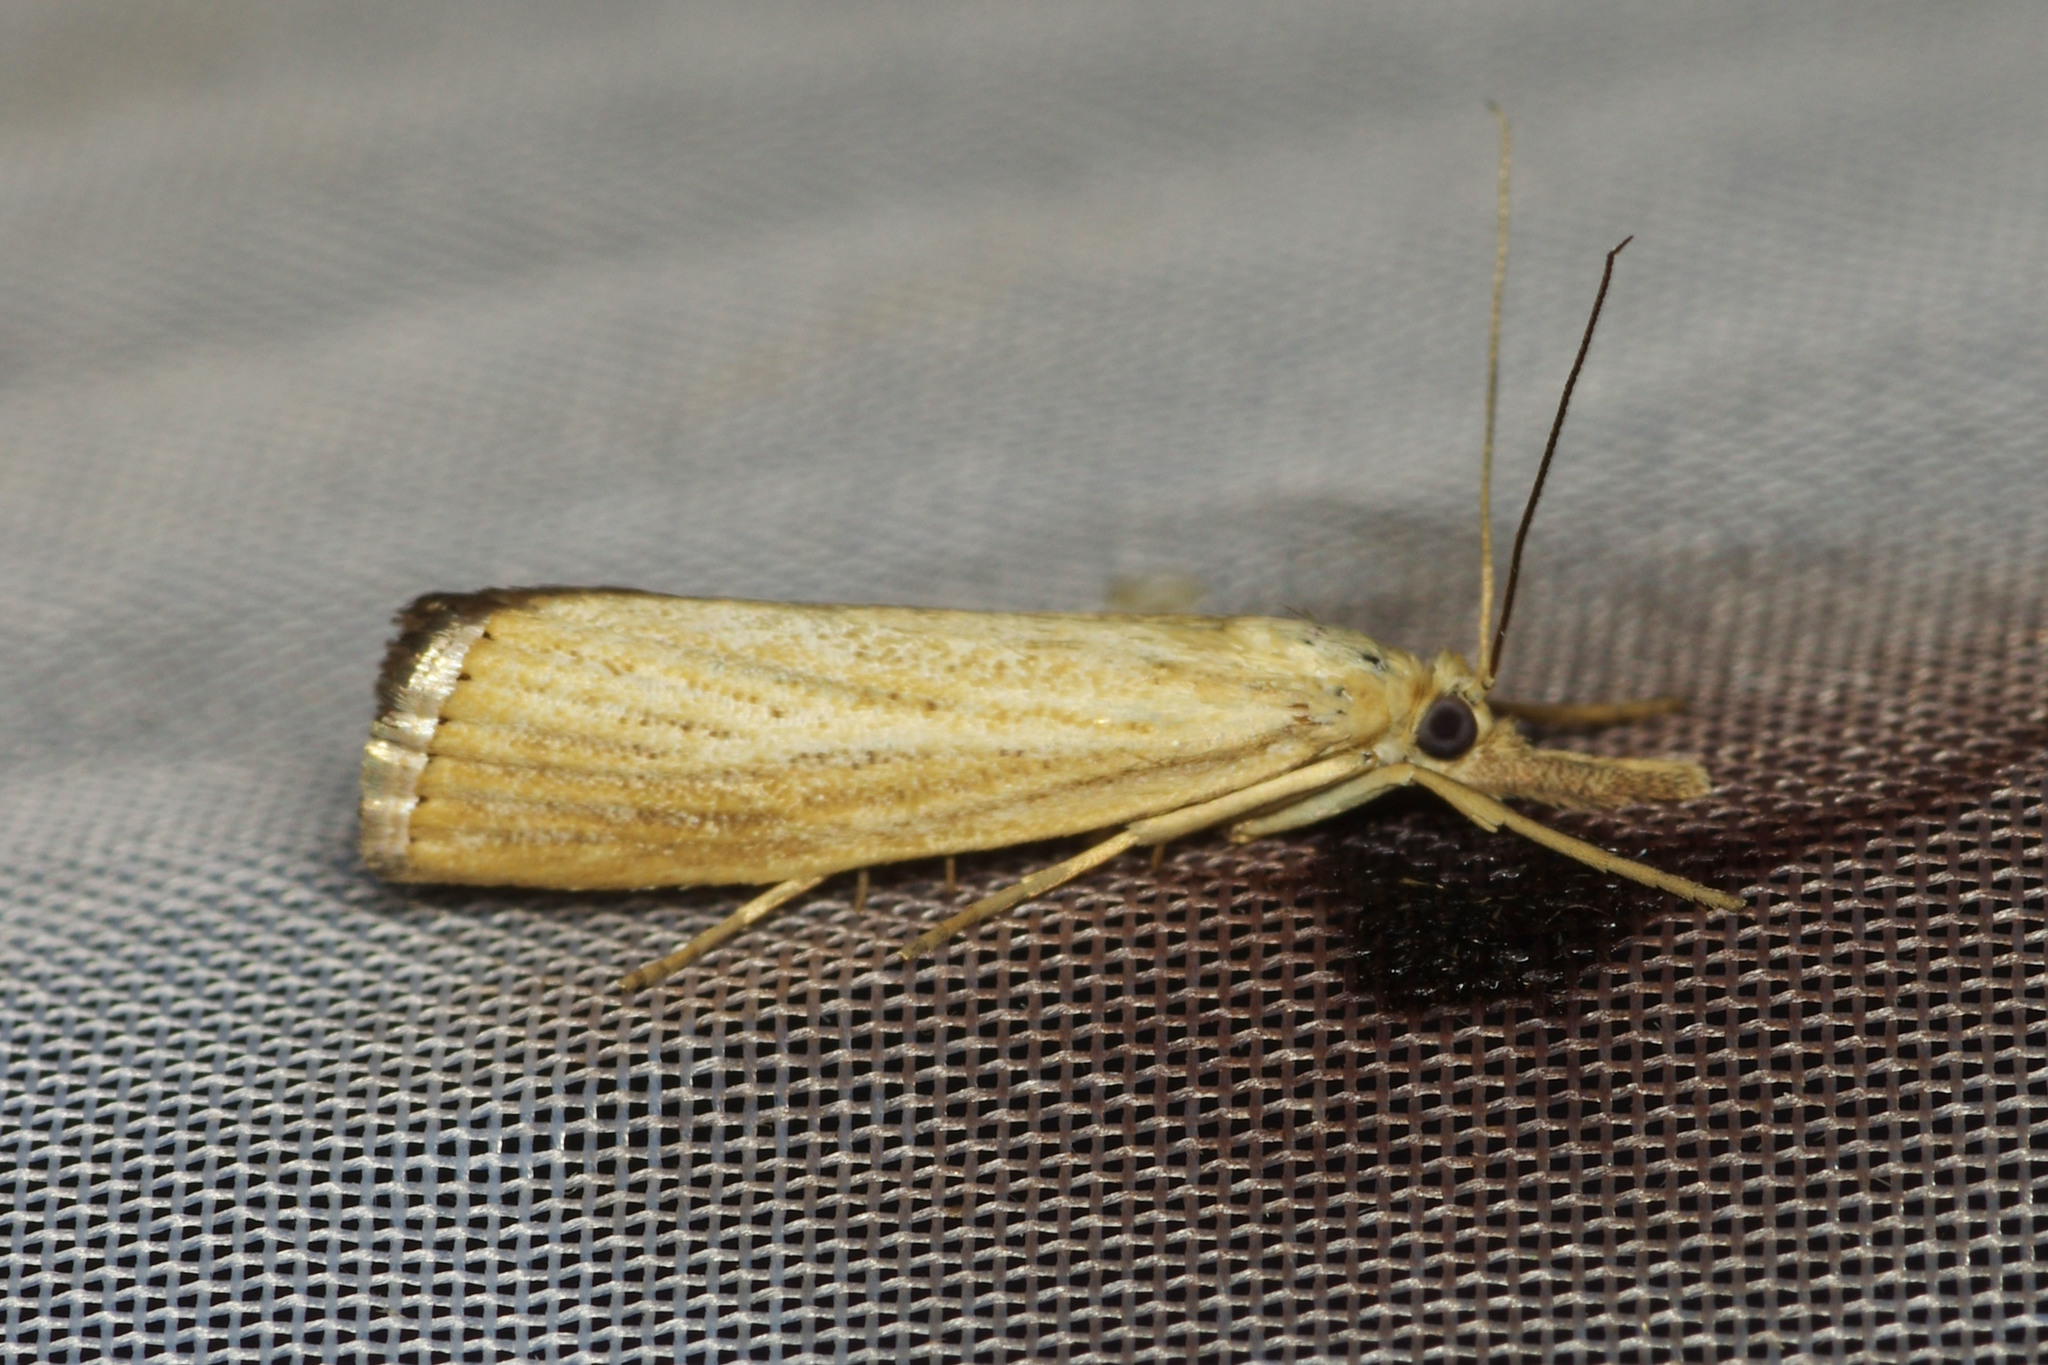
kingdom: Animalia
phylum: Arthropoda
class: Insecta
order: Lepidoptera
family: Crambidae
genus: Agriphila
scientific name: Agriphila straminella
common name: Straw grass-veneer
